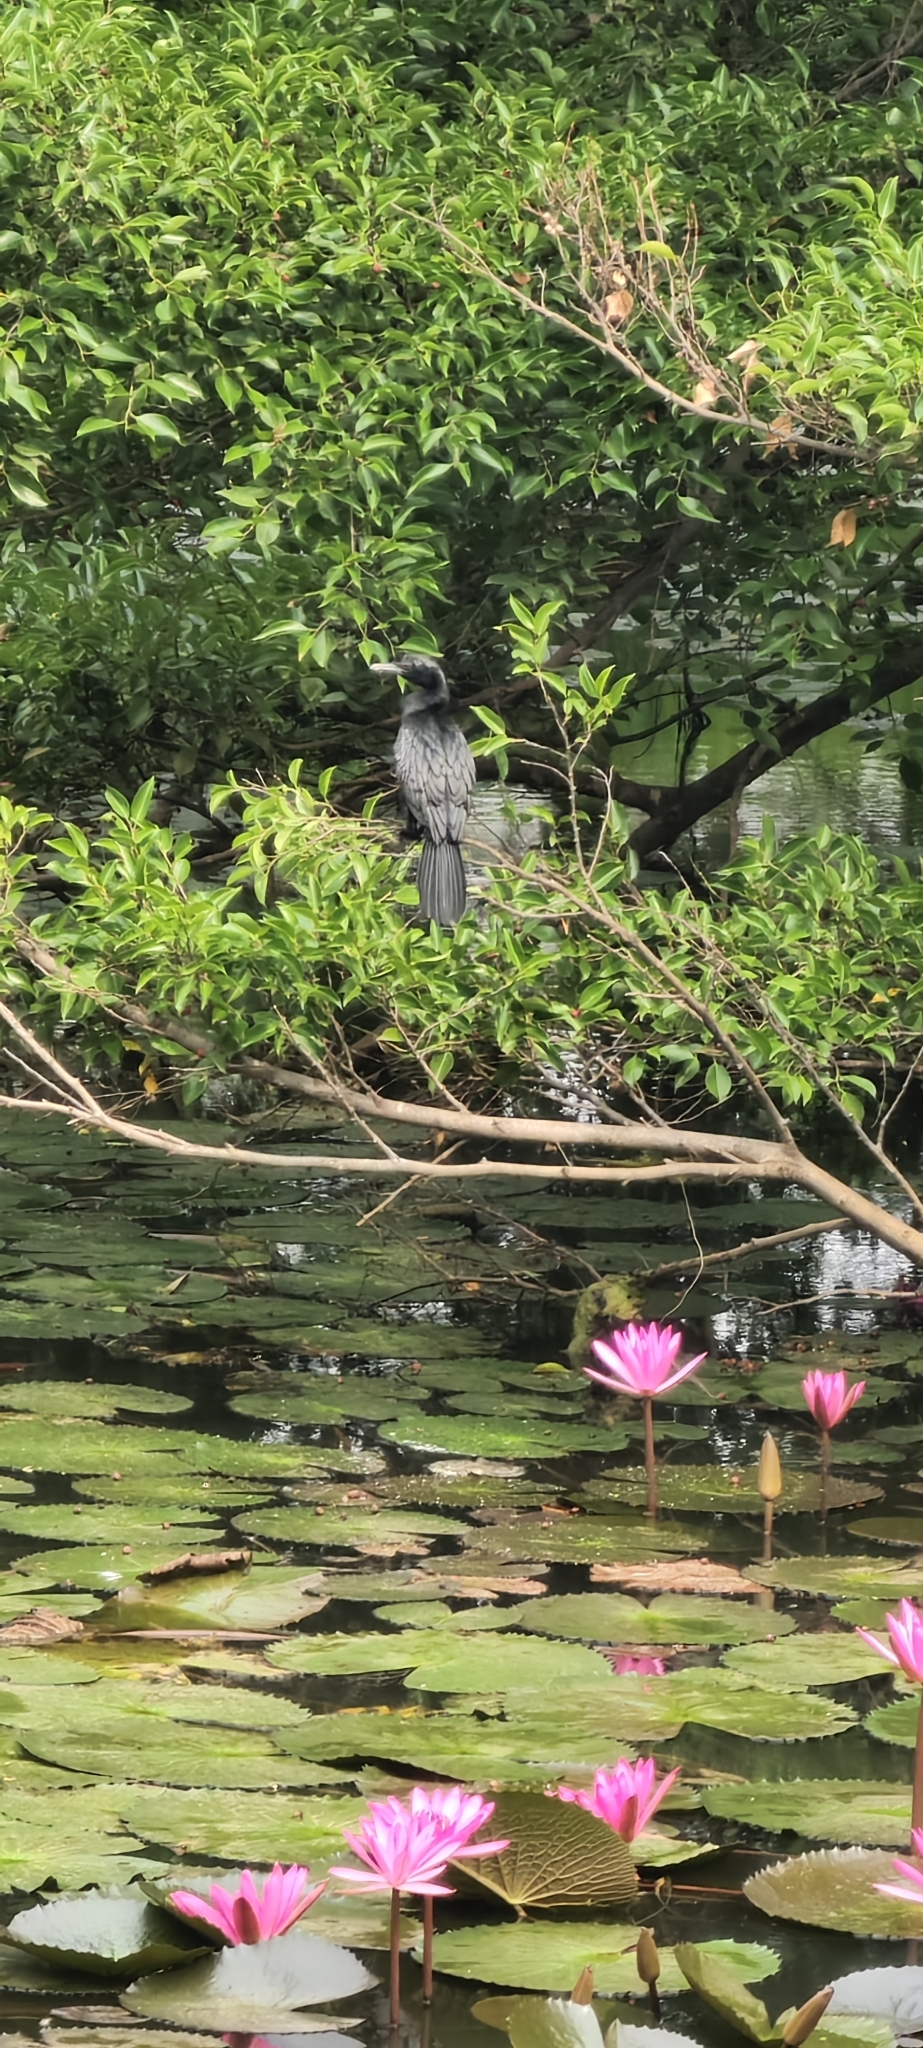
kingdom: Animalia
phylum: Chordata
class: Aves
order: Suliformes
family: Phalacrocoracidae
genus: Microcarbo
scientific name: Microcarbo niger
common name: Little cormorant
